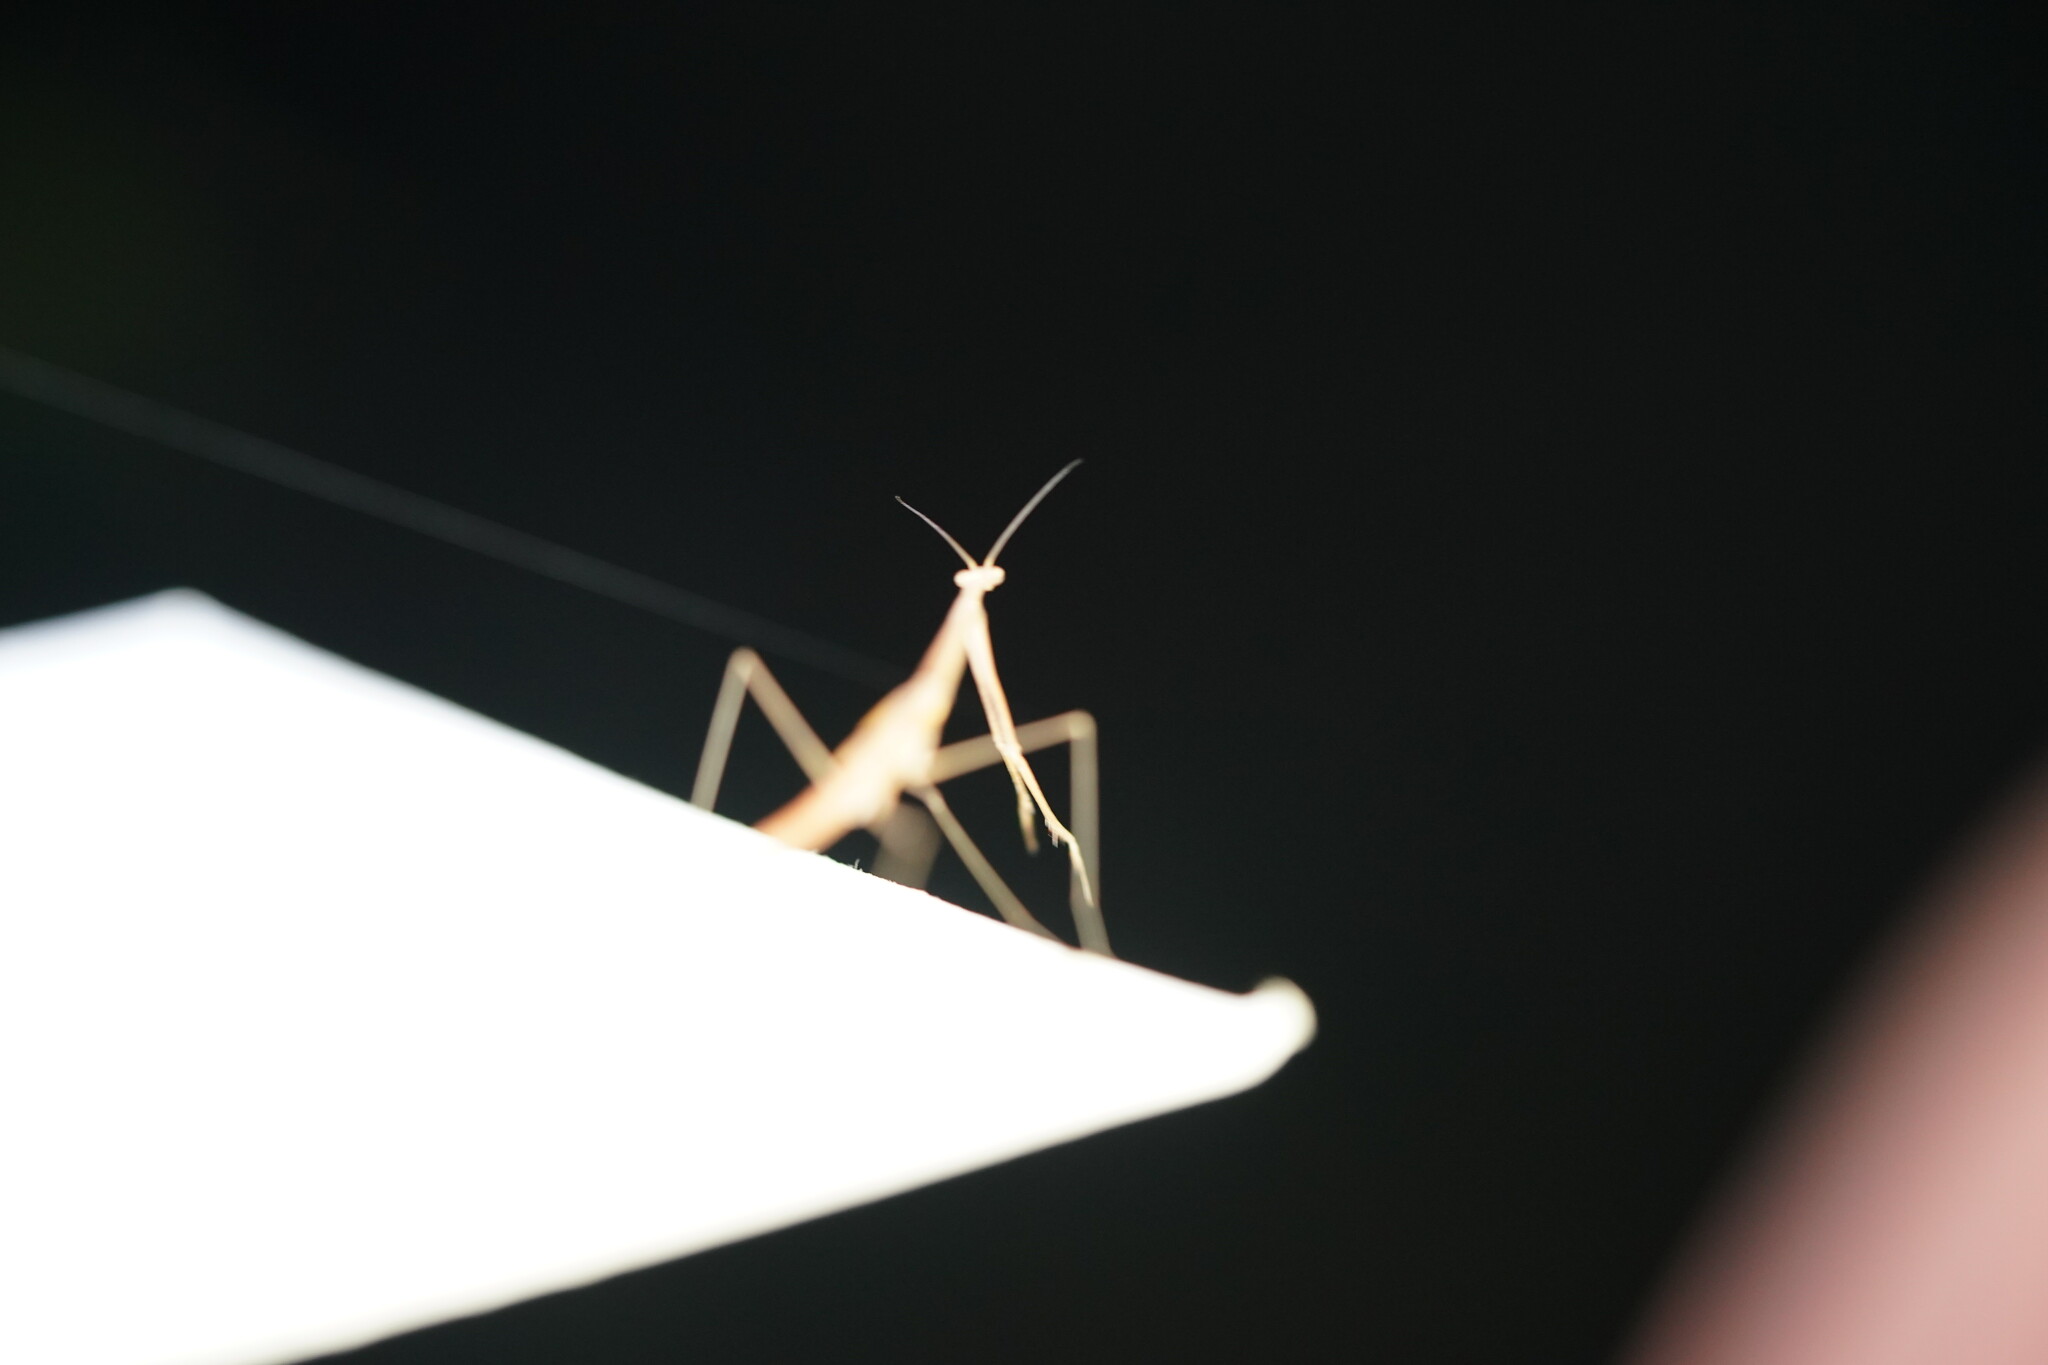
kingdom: Animalia
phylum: Arthropoda
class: Insecta
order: Mantodea
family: Thespidae
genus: Thesprotia
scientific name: Thesprotia graminis
